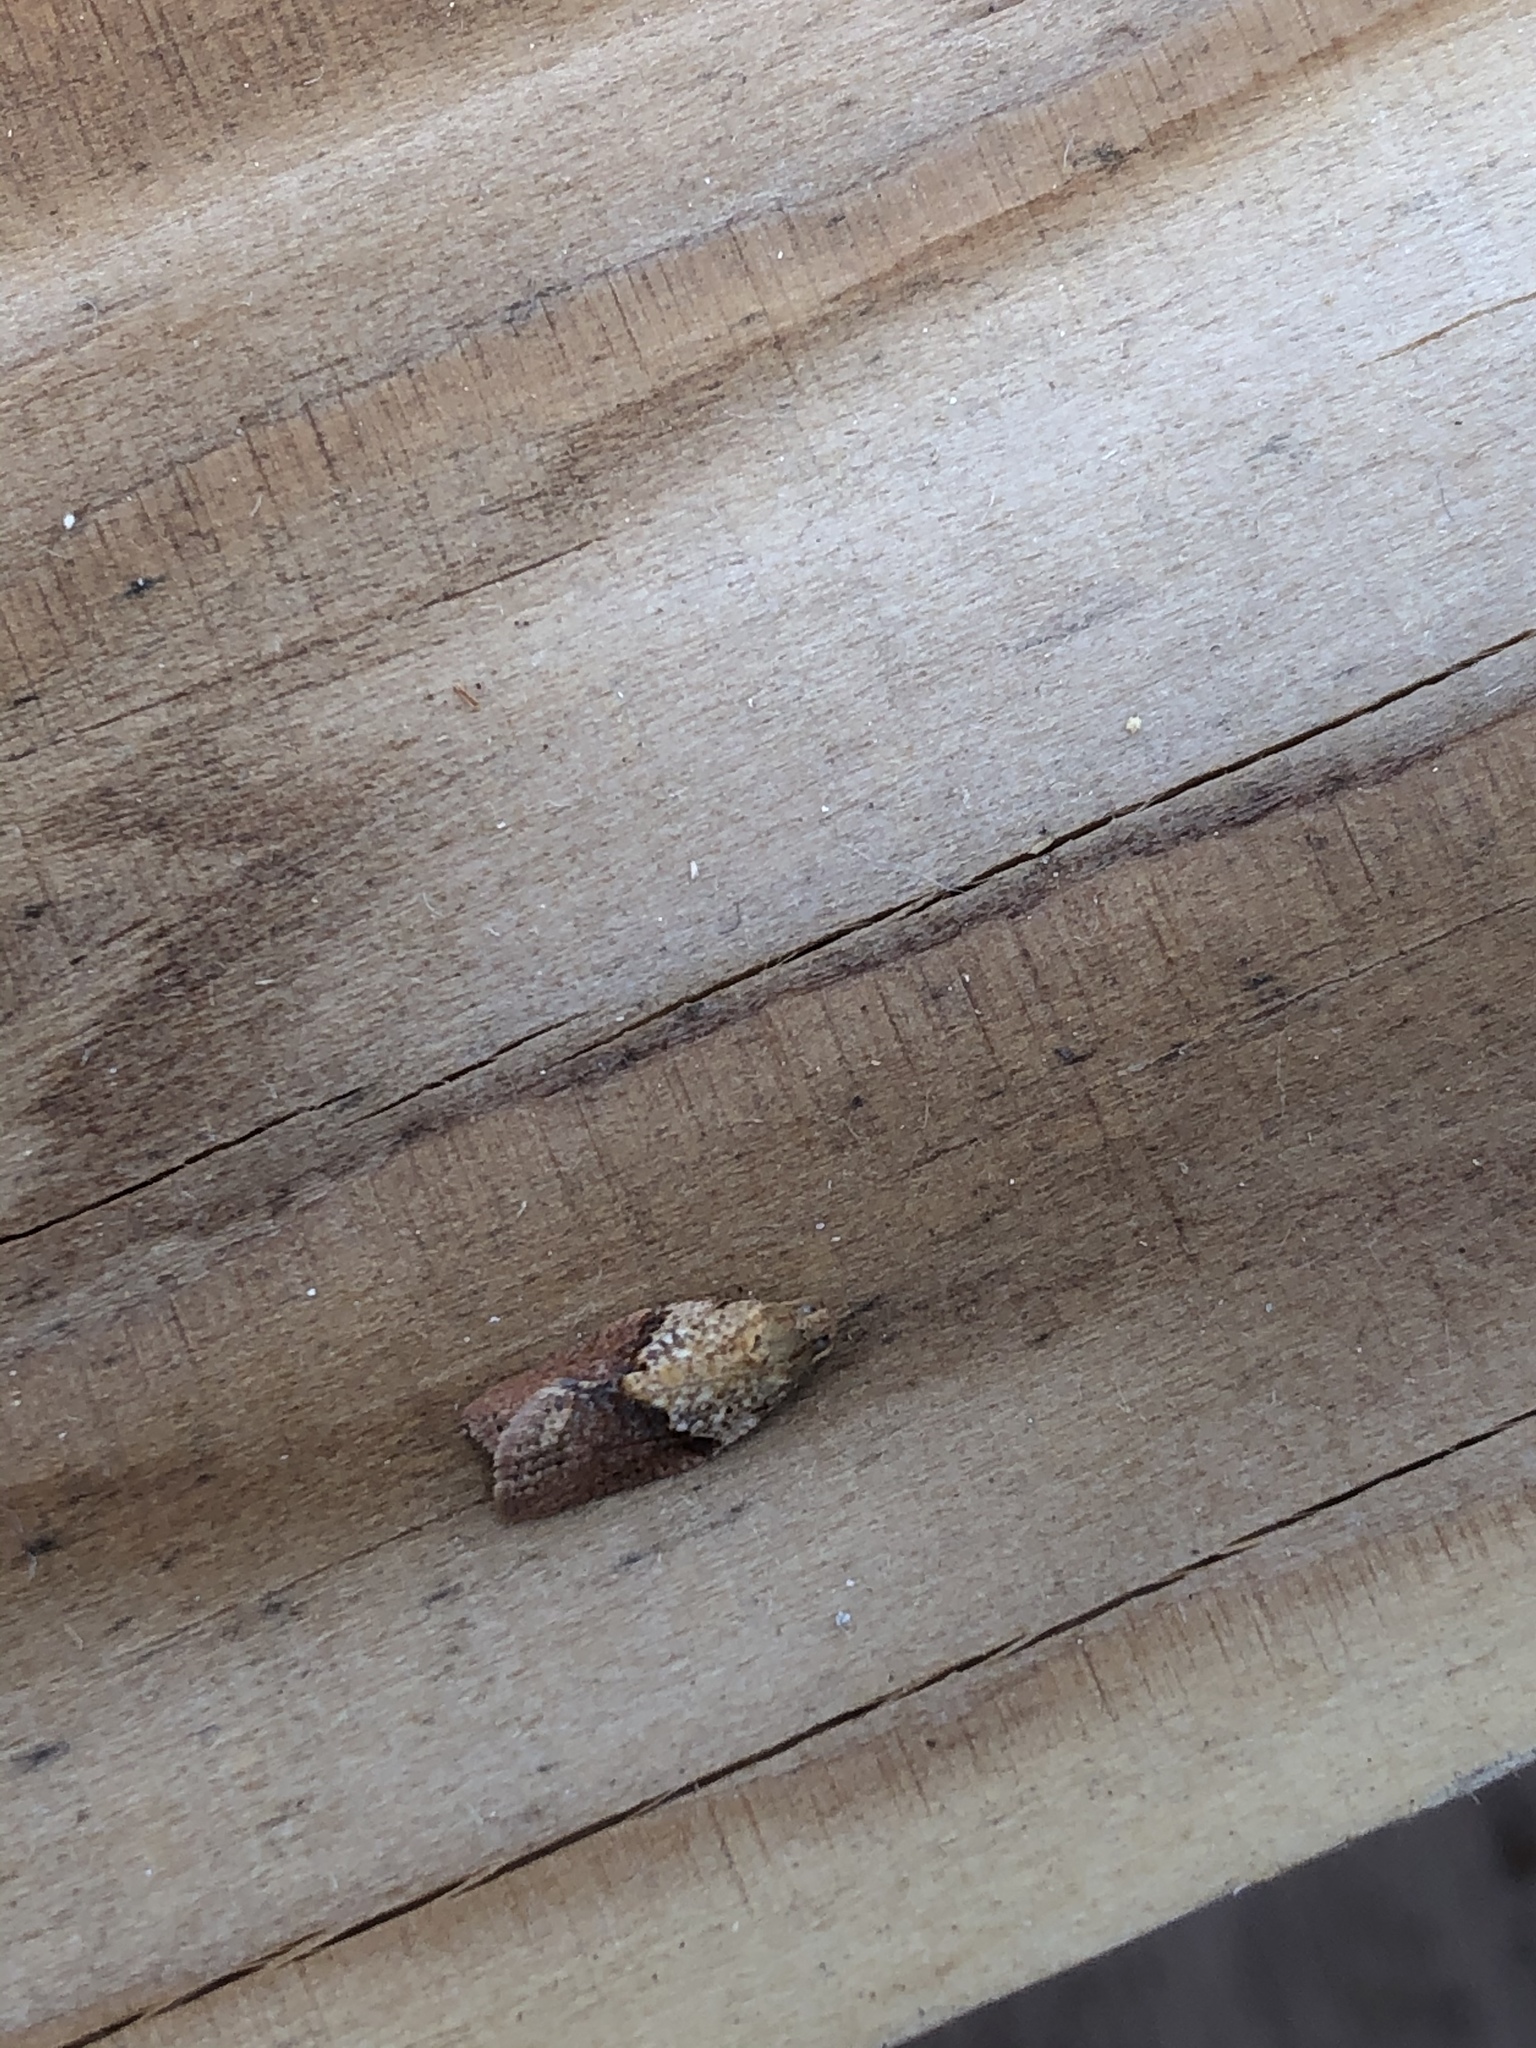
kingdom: Animalia
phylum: Arthropoda
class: Insecta
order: Lepidoptera
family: Tortricidae
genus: Epiphyas
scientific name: Epiphyas postvittana
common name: Light brown apple moth
